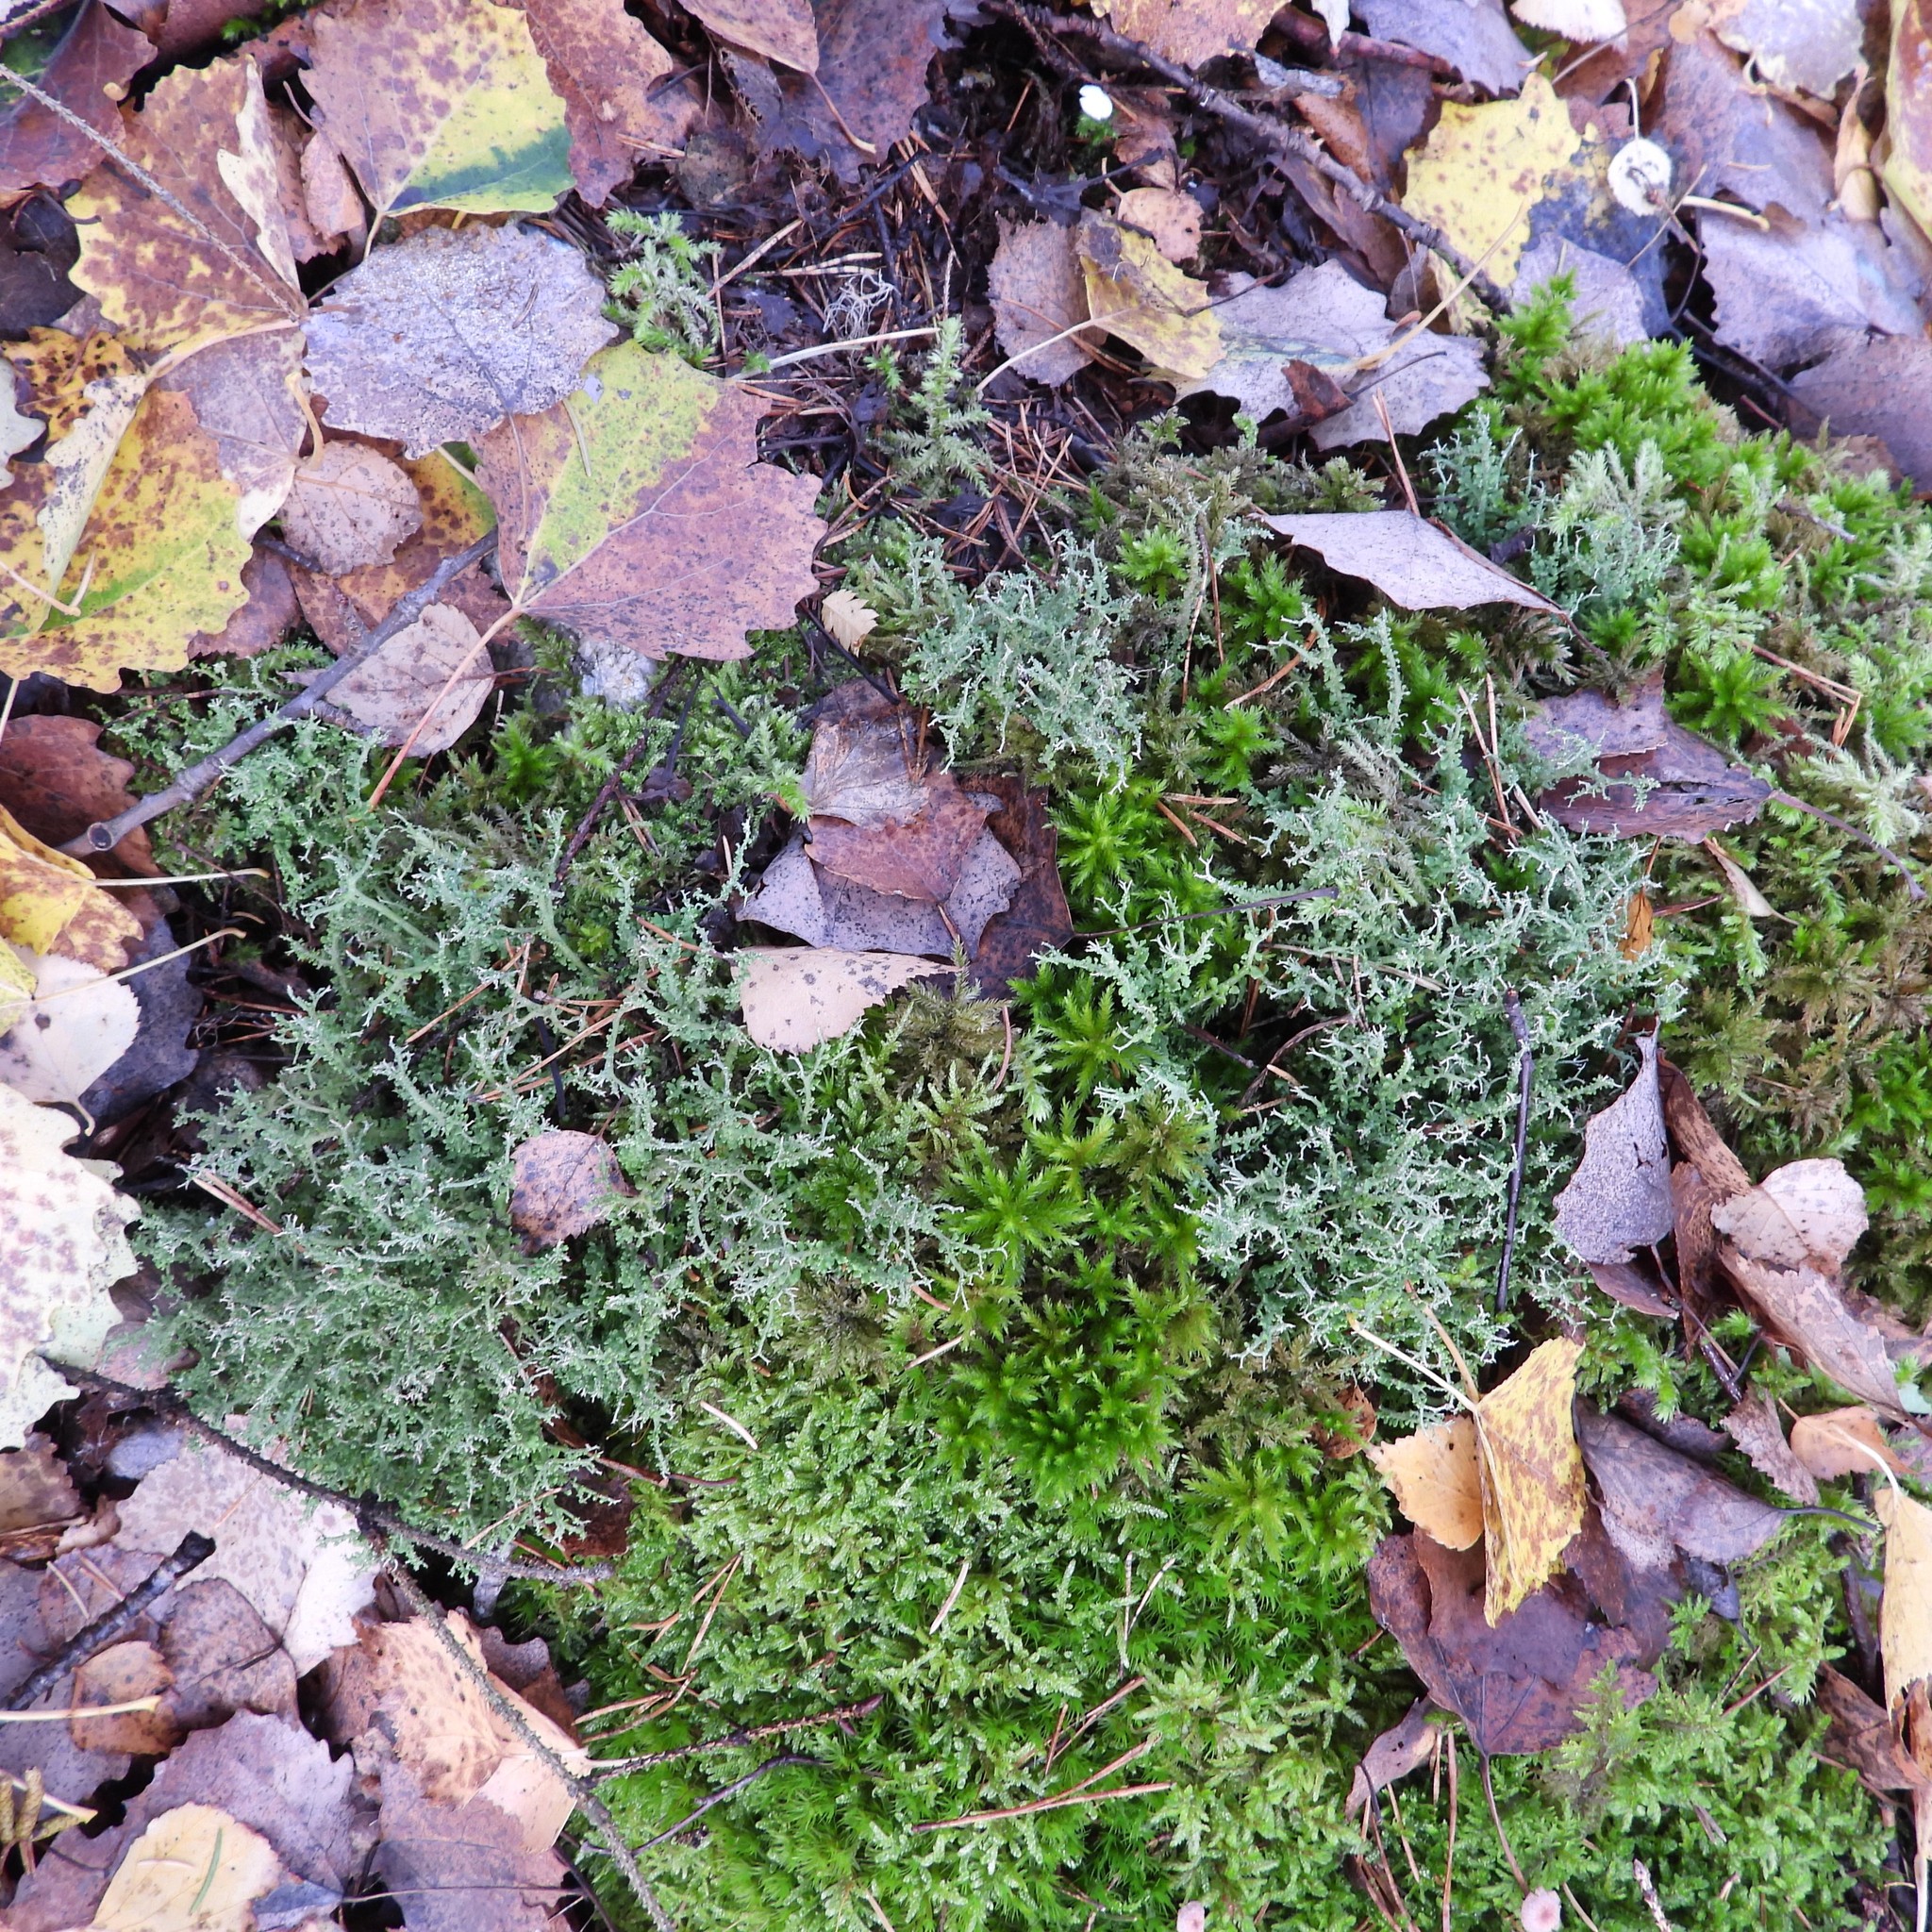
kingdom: Fungi
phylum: Ascomycota
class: Lecanoromycetes
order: Lecanorales
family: Cladoniaceae
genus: Cladonia
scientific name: Cladonia furcata
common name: Many-forked cladonia
